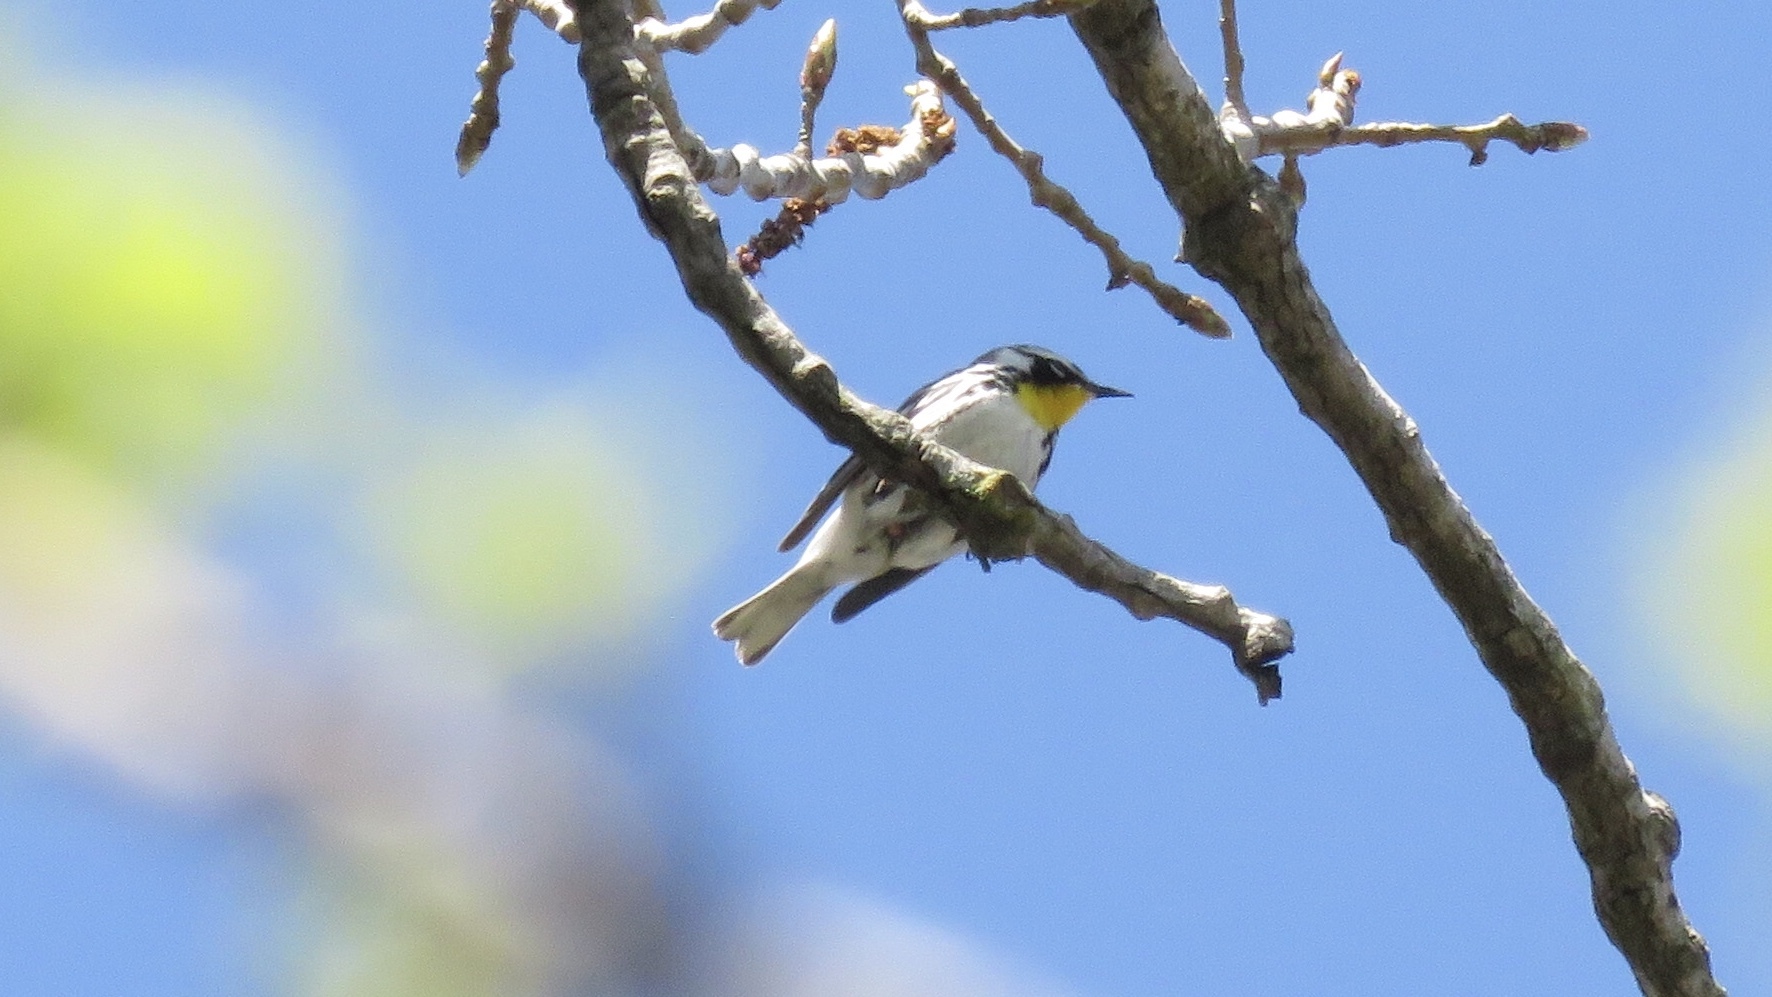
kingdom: Animalia
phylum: Chordata
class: Aves
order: Passeriformes
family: Parulidae
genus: Setophaga
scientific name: Setophaga dominica
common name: Yellow-throated warbler
